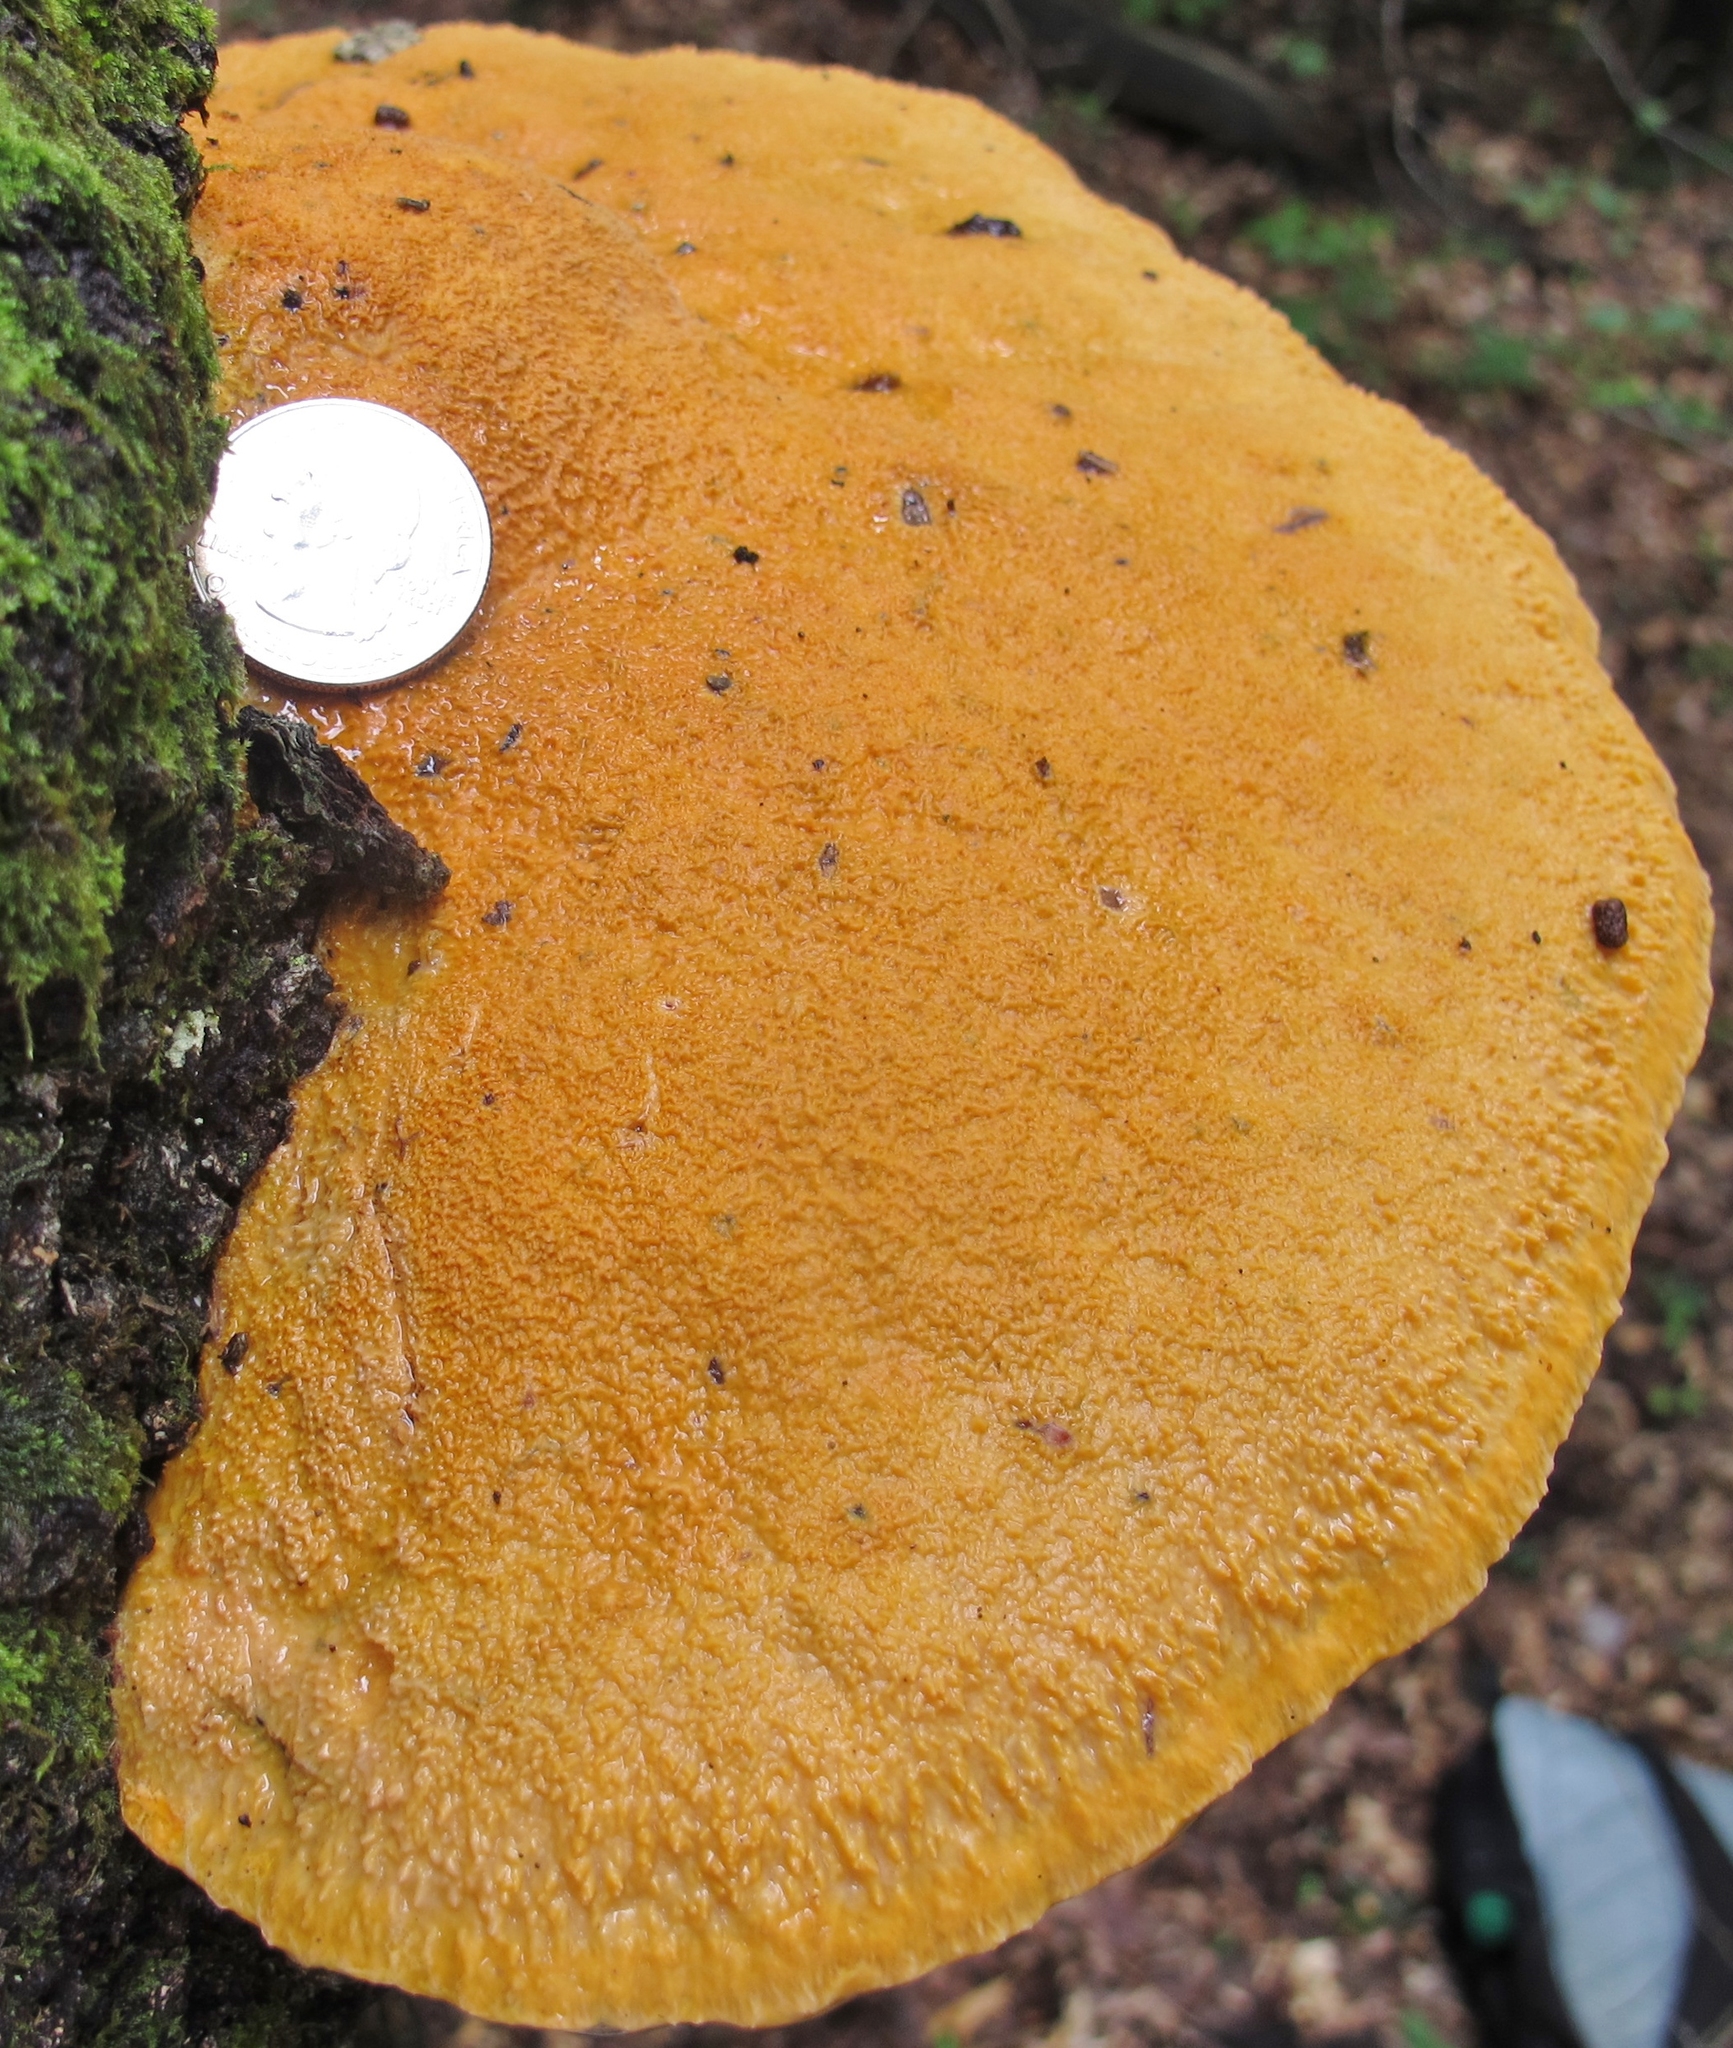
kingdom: Fungi
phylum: Basidiomycota
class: Agaricomycetes
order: Polyporales
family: Phanerochaetaceae
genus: Hapalopilus
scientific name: Hapalopilus croceus
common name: Orange polypore
